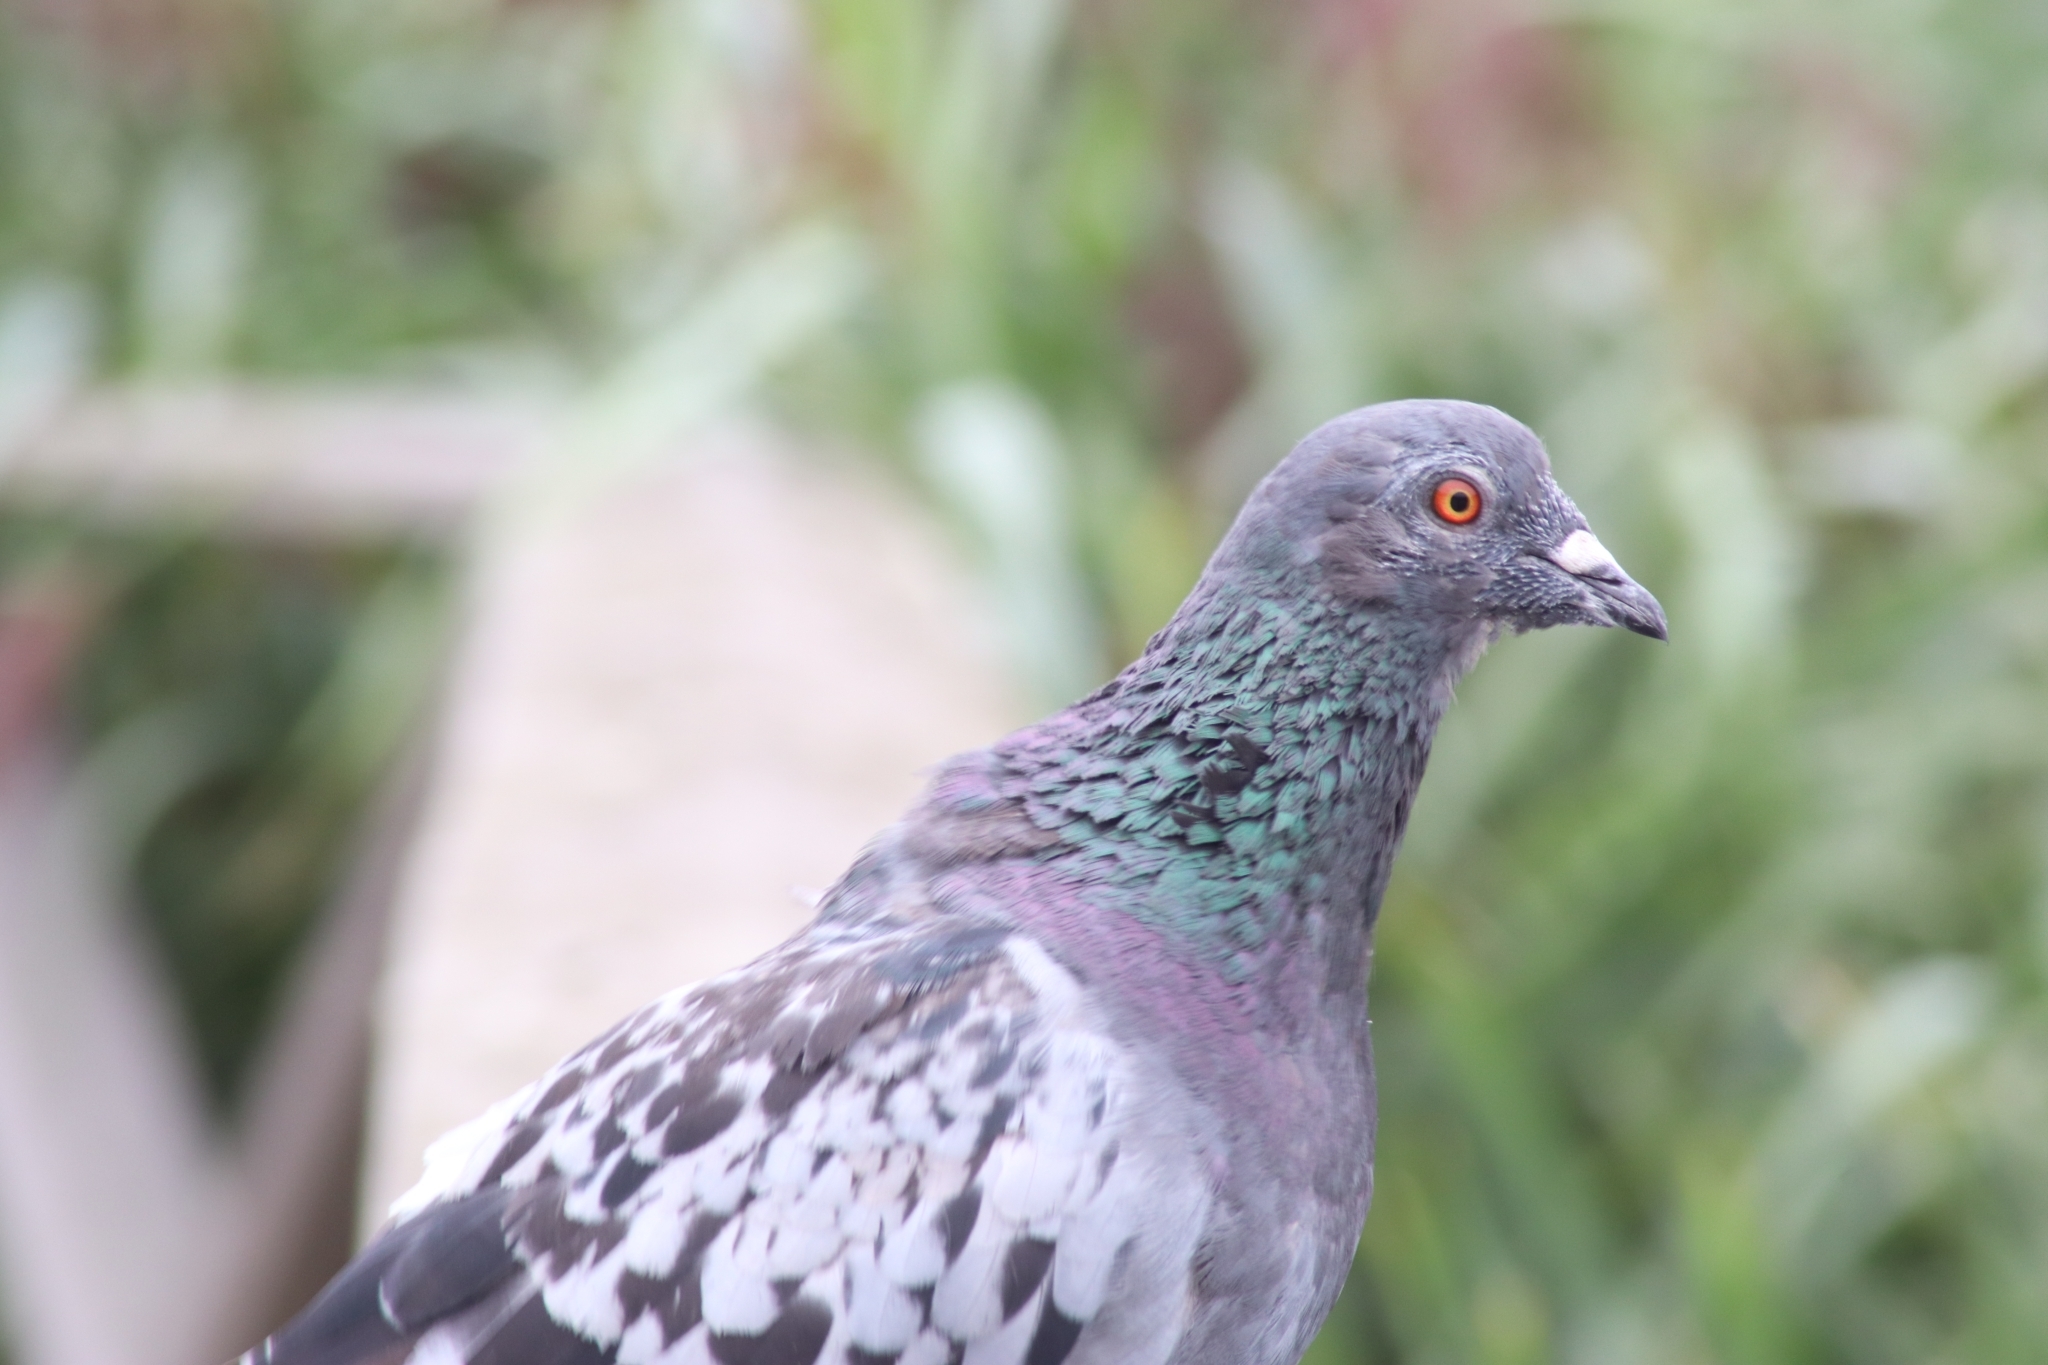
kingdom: Animalia
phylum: Chordata
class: Aves
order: Columbiformes
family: Columbidae
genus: Columba
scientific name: Columba livia
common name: Rock pigeon
